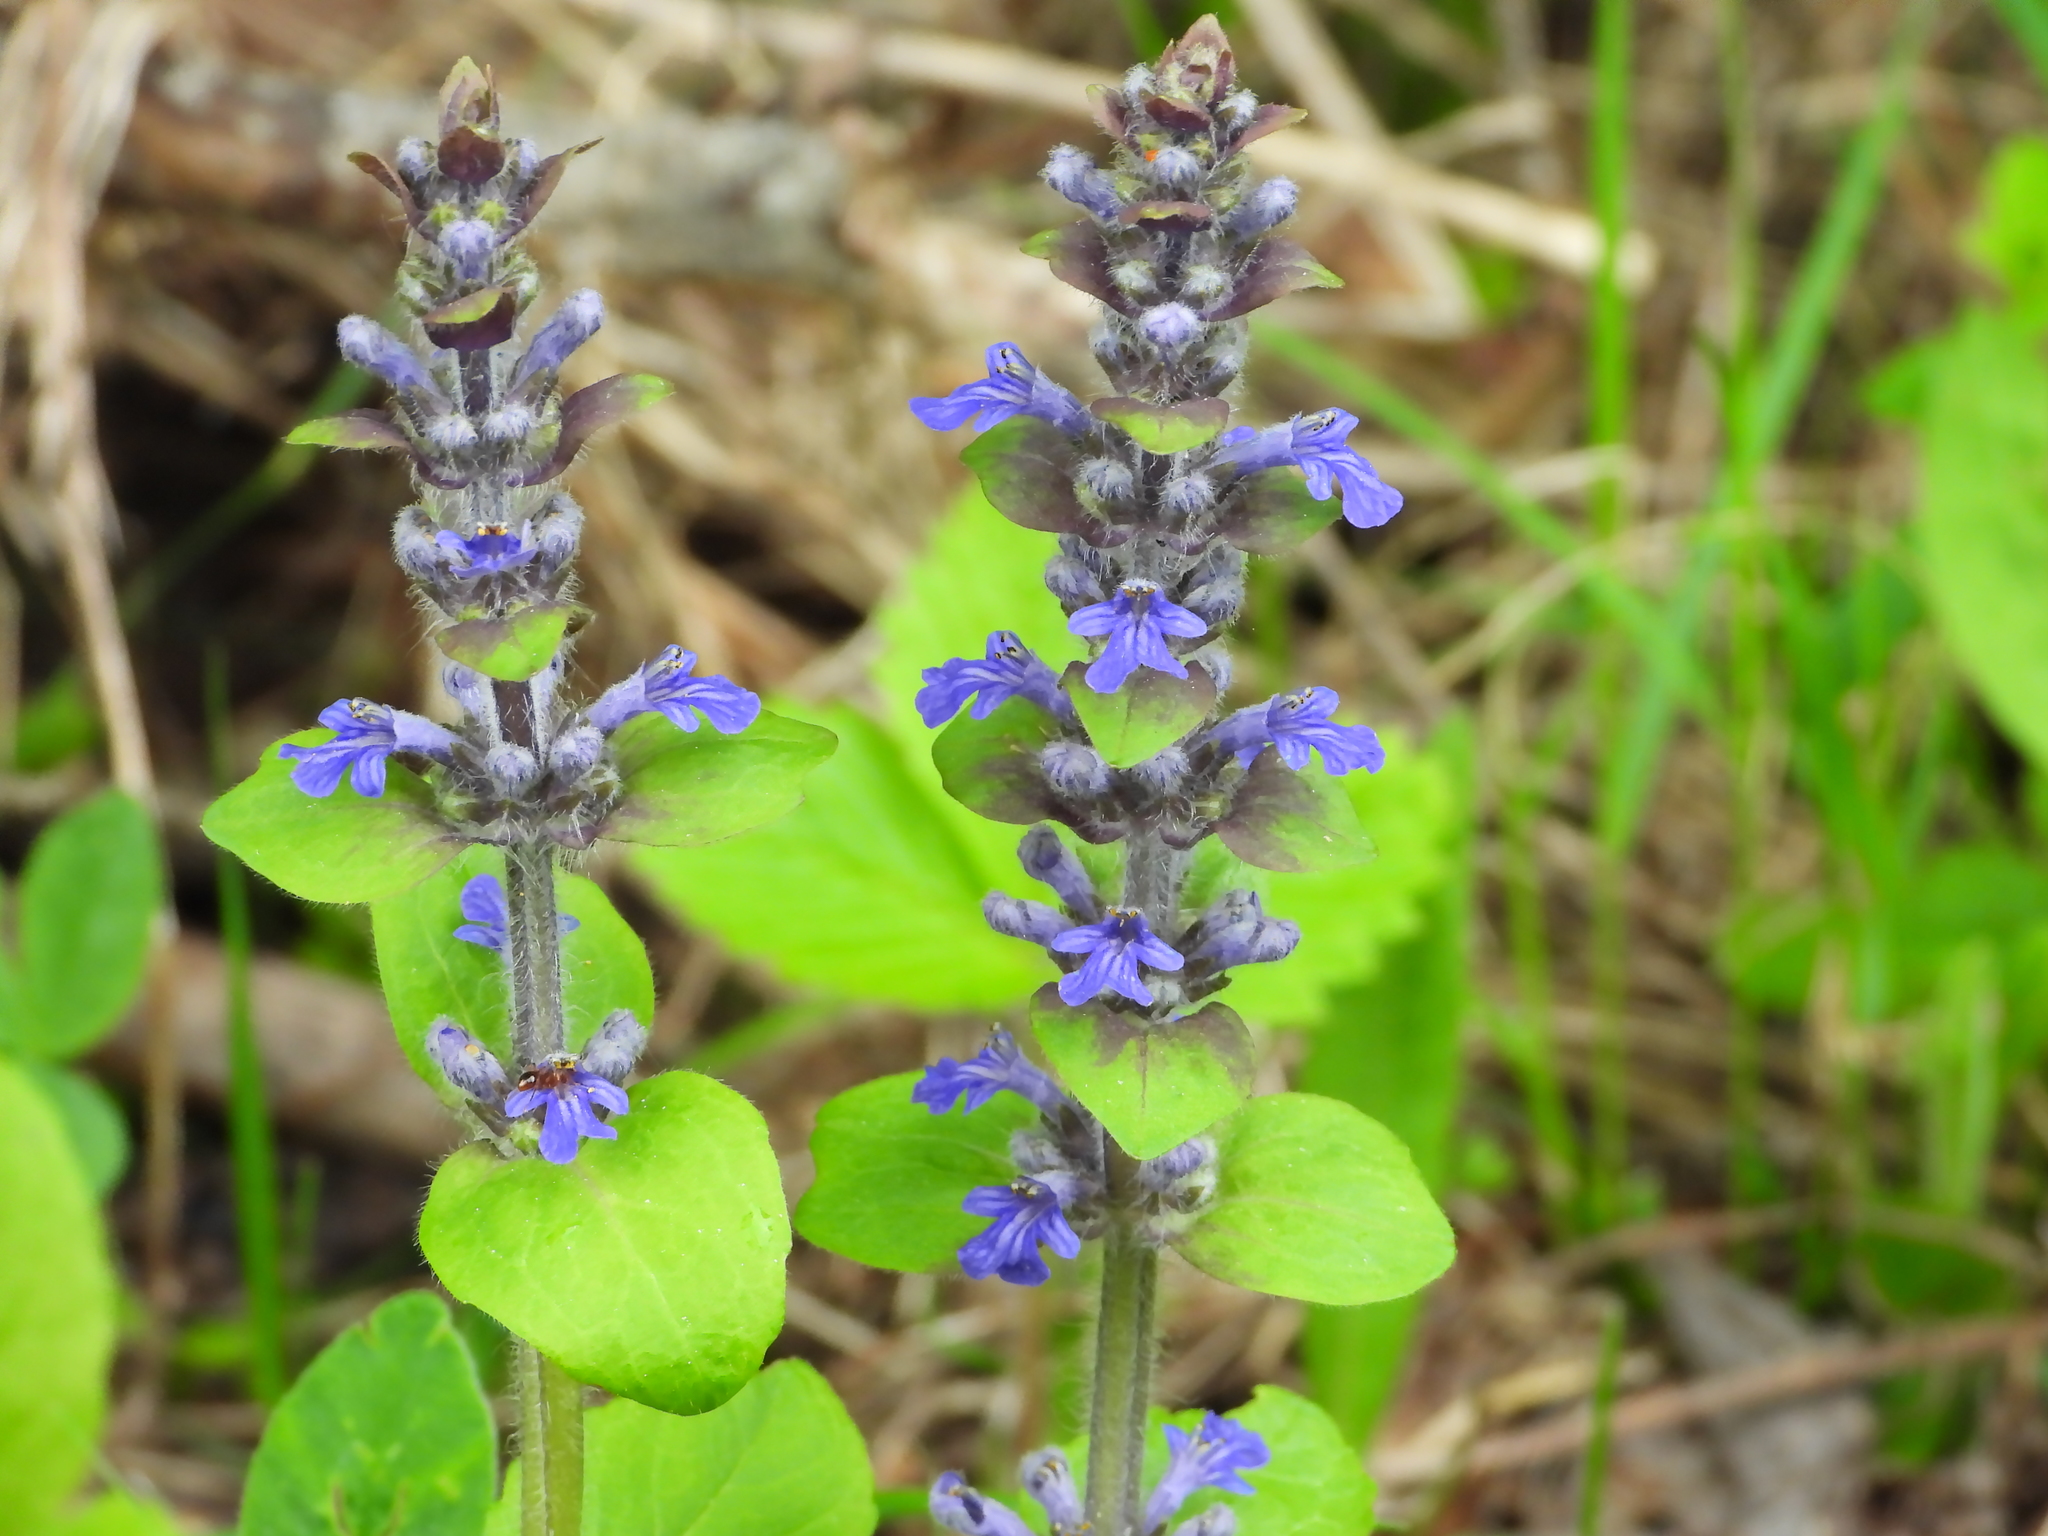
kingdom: Plantae
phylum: Tracheophyta
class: Magnoliopsida
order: Lamiales
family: Lamiaceae
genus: Ajuga
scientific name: Ajuga reptans
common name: Bugle
